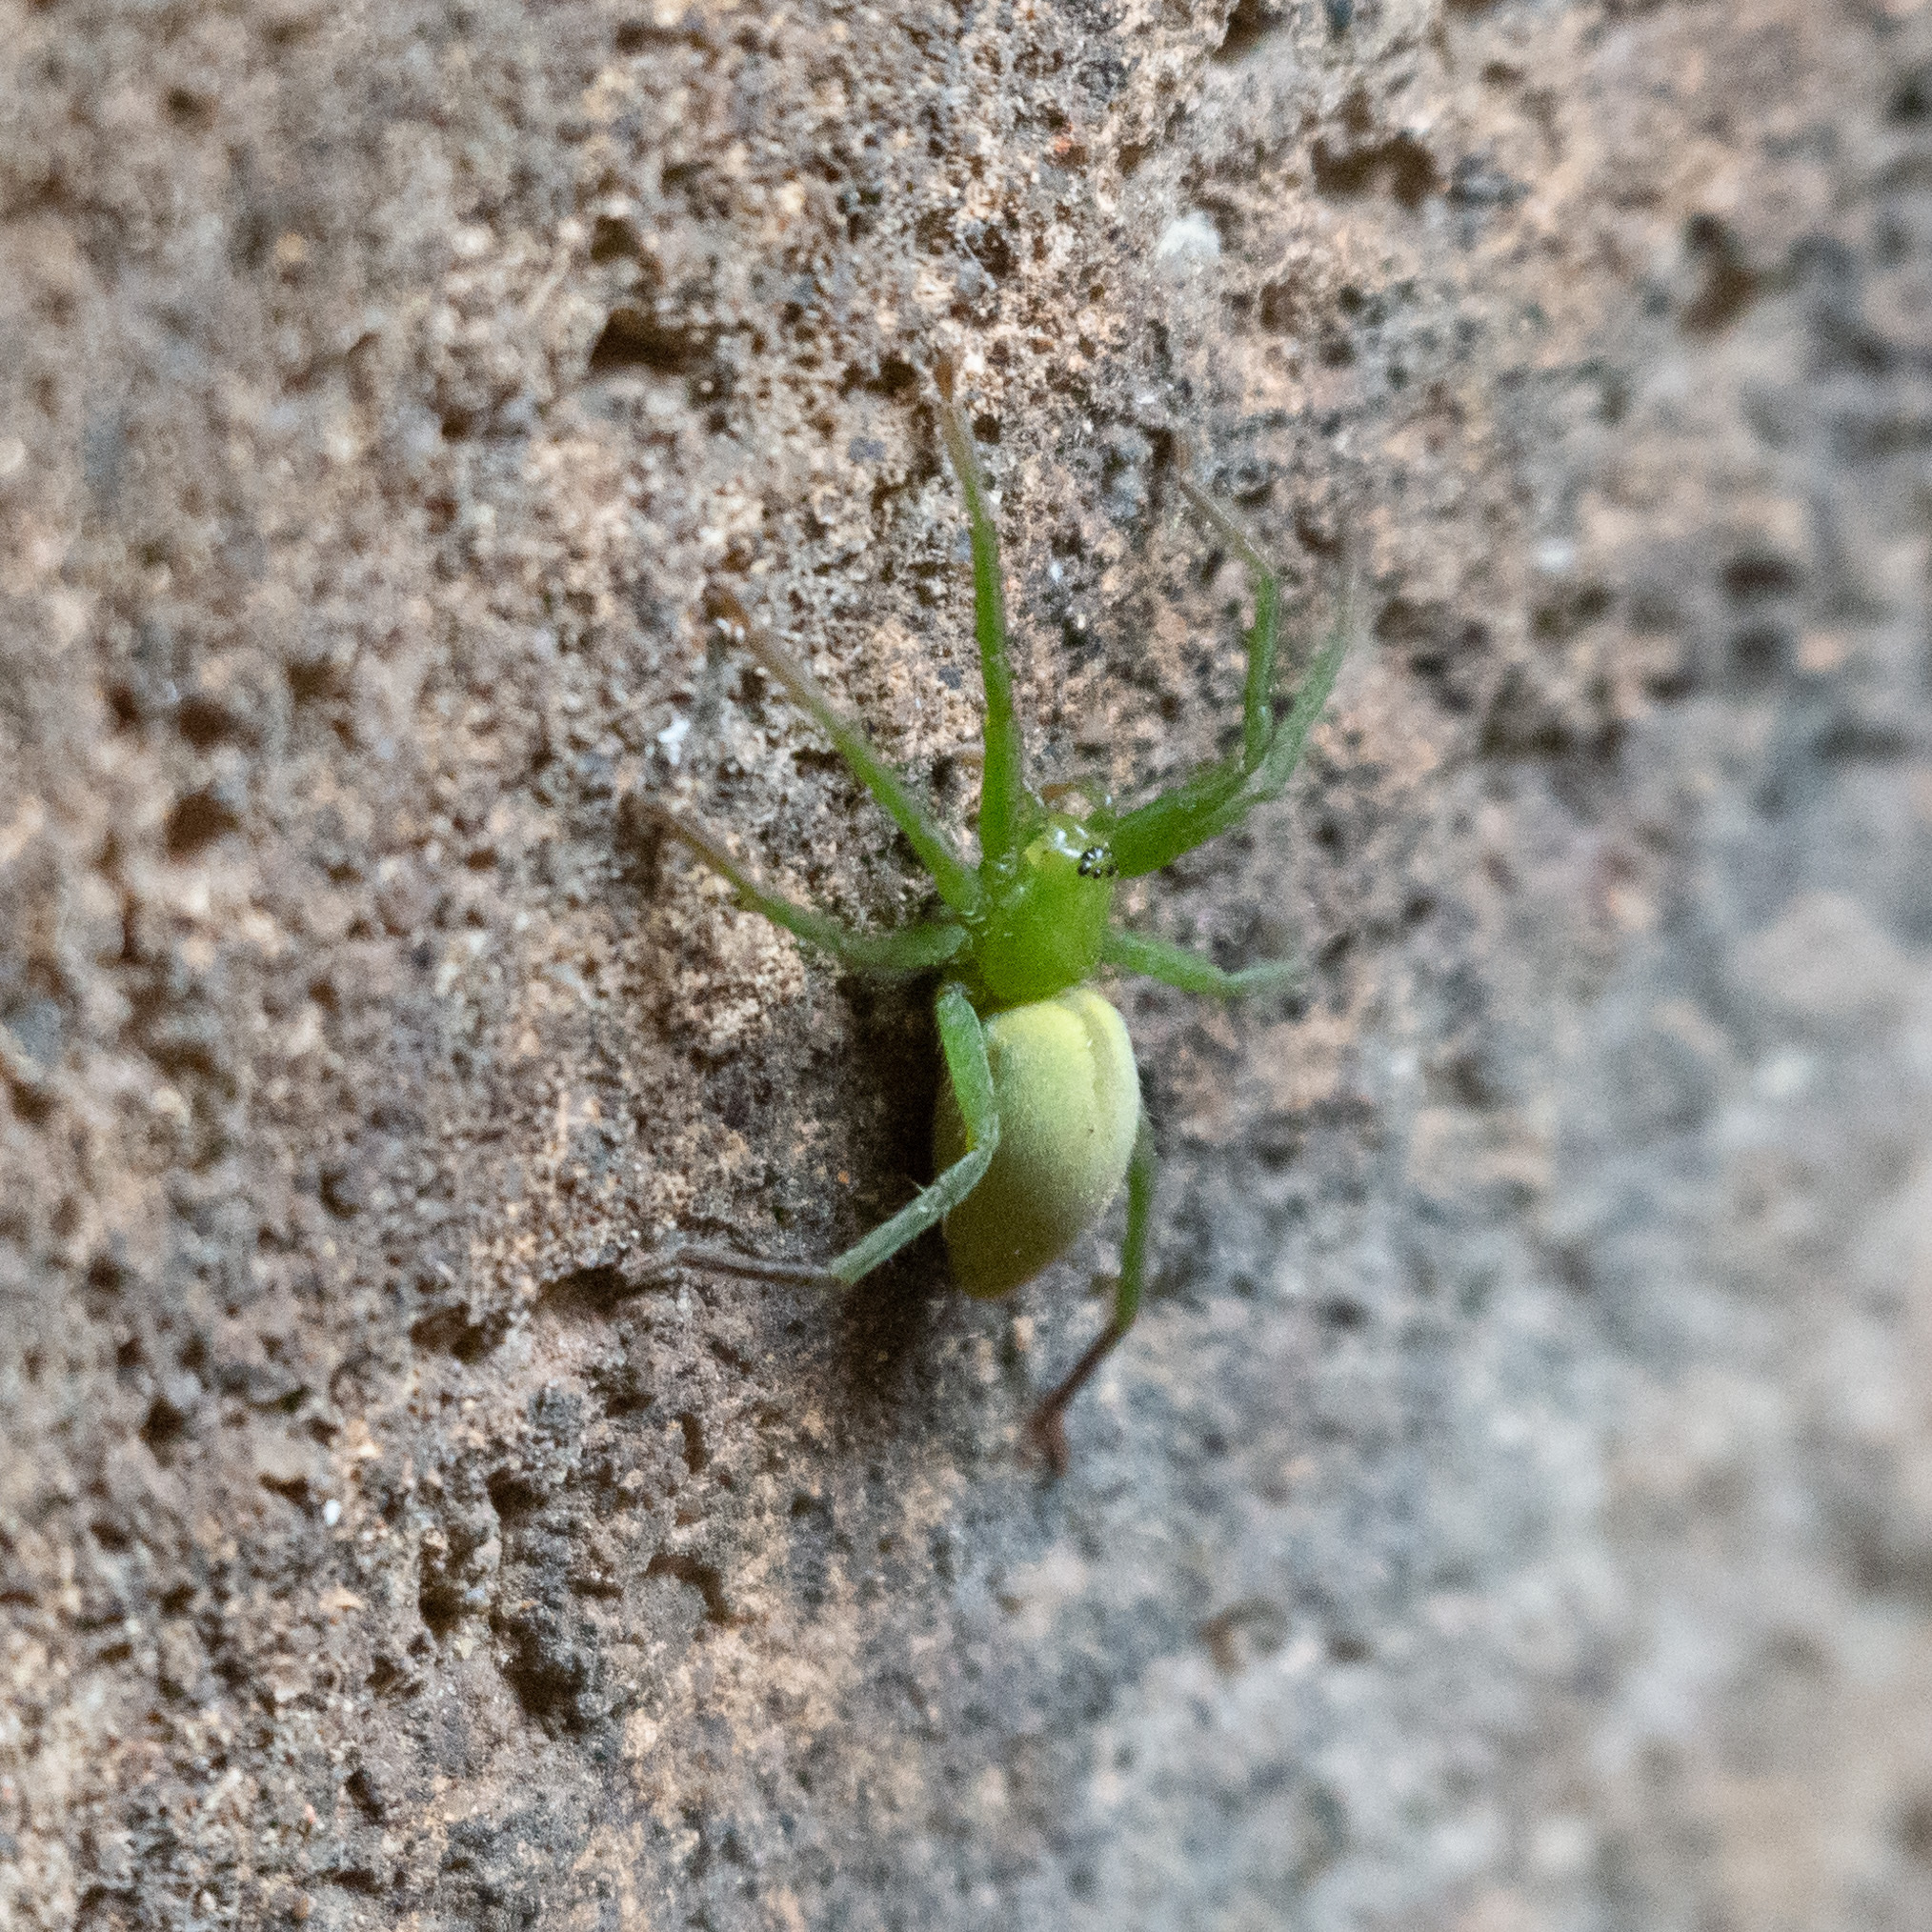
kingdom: Animalia
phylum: Arthropoda
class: Arachnida
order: Araneae
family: Sparassidae
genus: Micrommata
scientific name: Micrommata virescens
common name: Green spider
